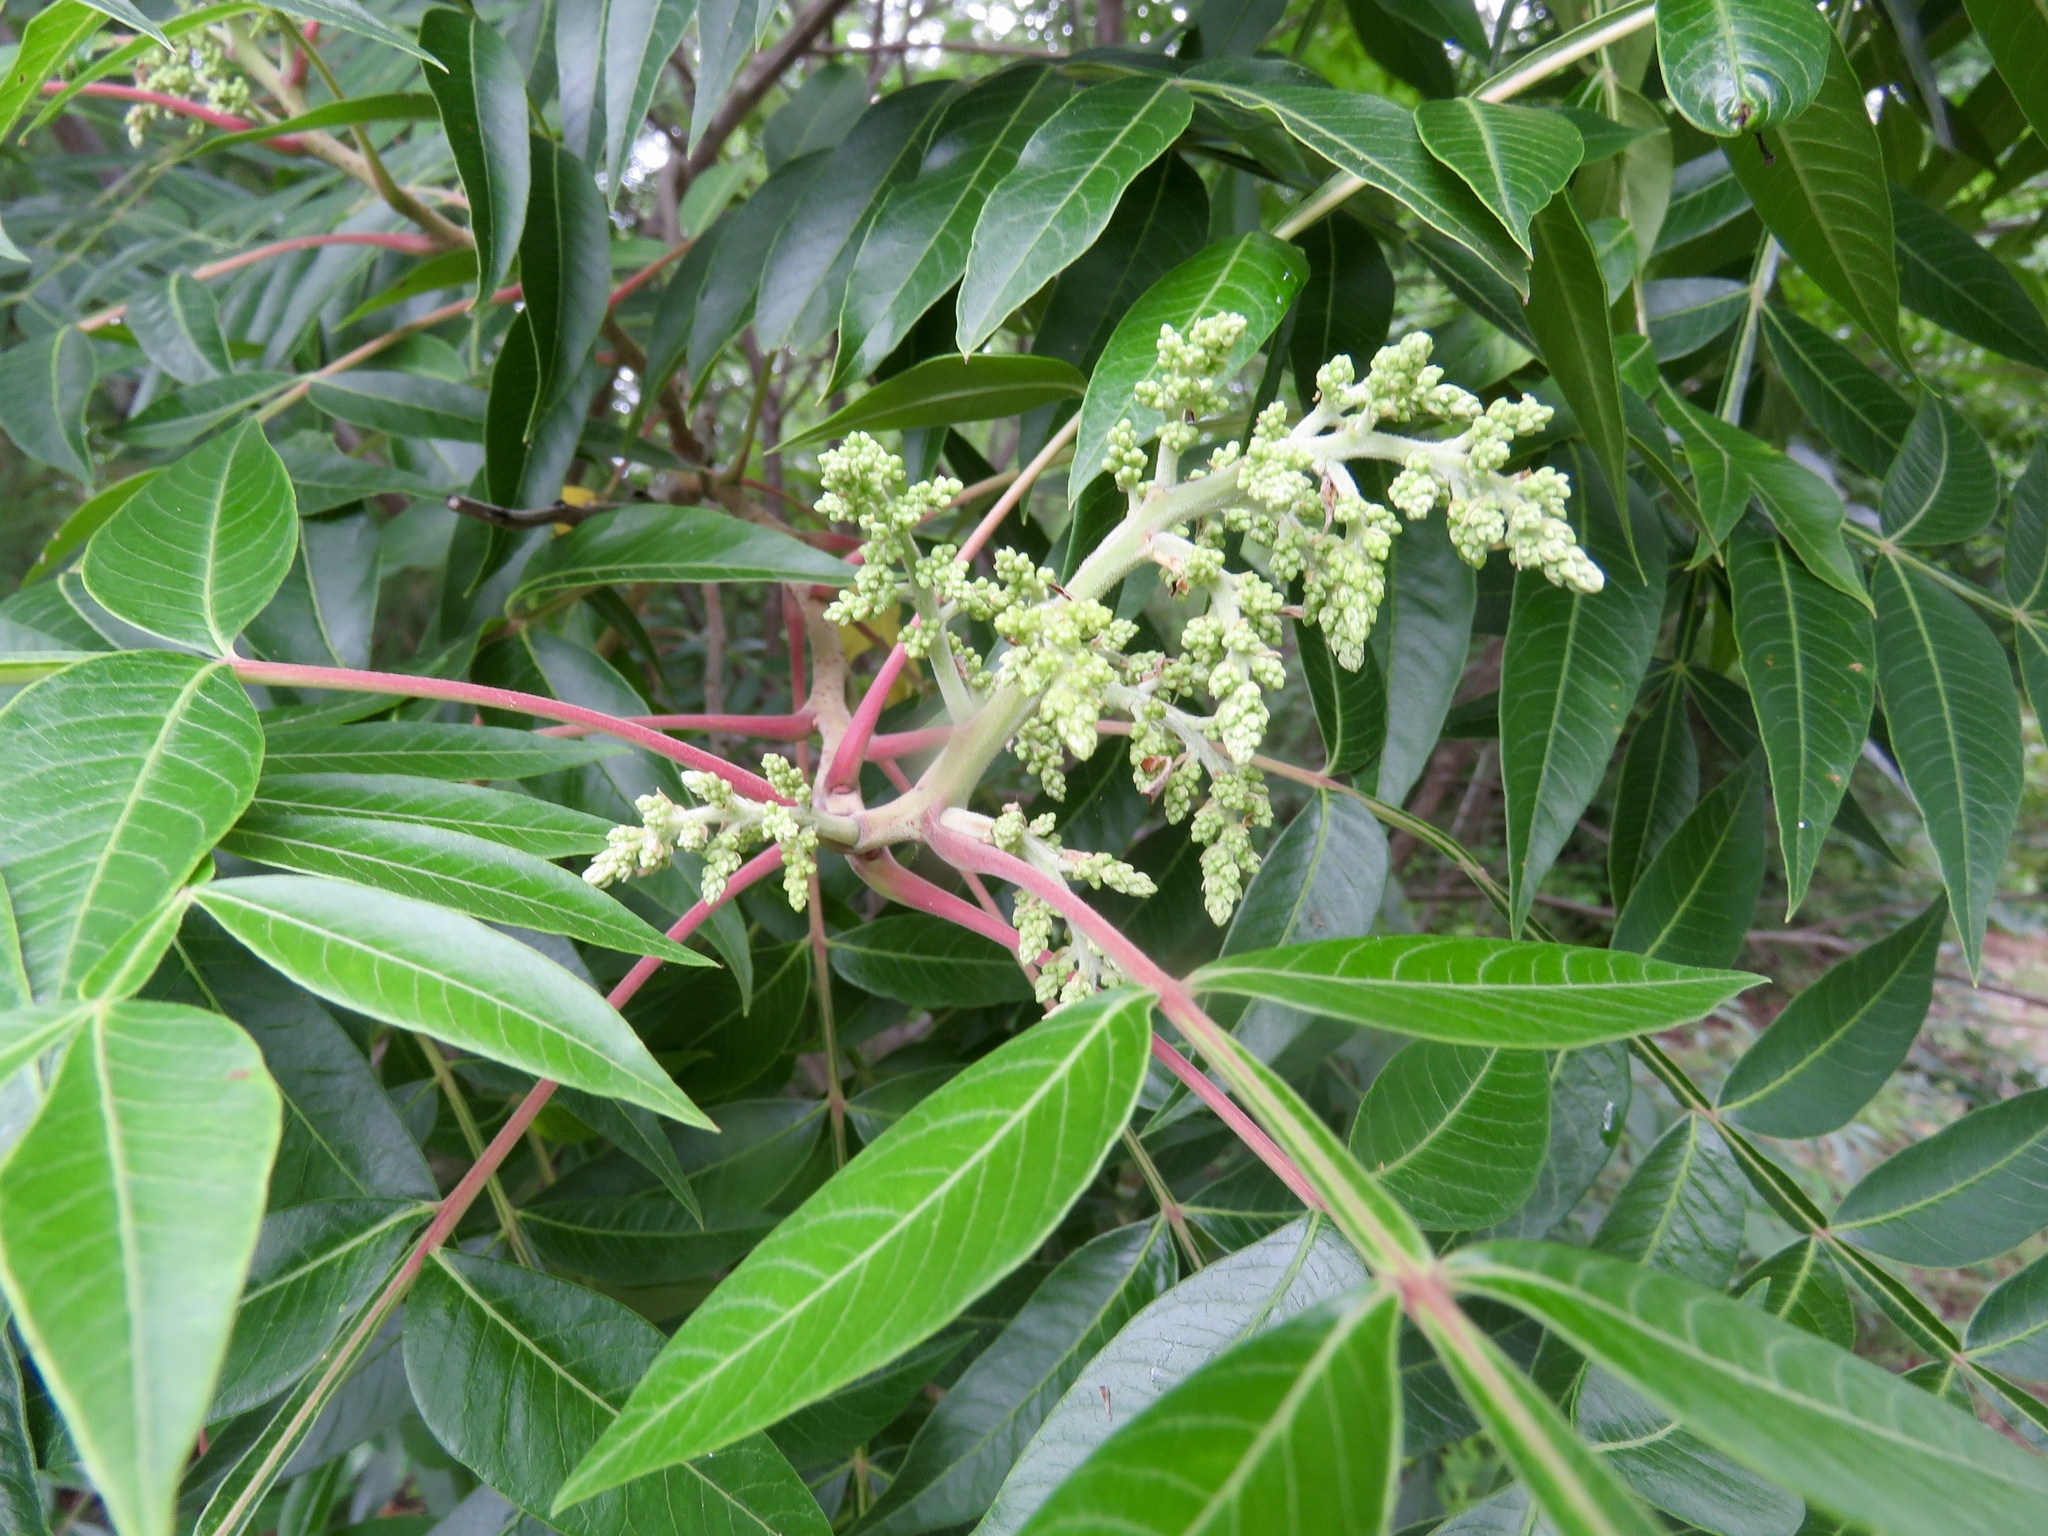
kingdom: Plantae
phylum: Tracheophyta
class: Magnoliopsida
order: Sapindales
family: Anacardiaceae
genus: Rhus
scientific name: Rhus copallina
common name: Shining sumac
